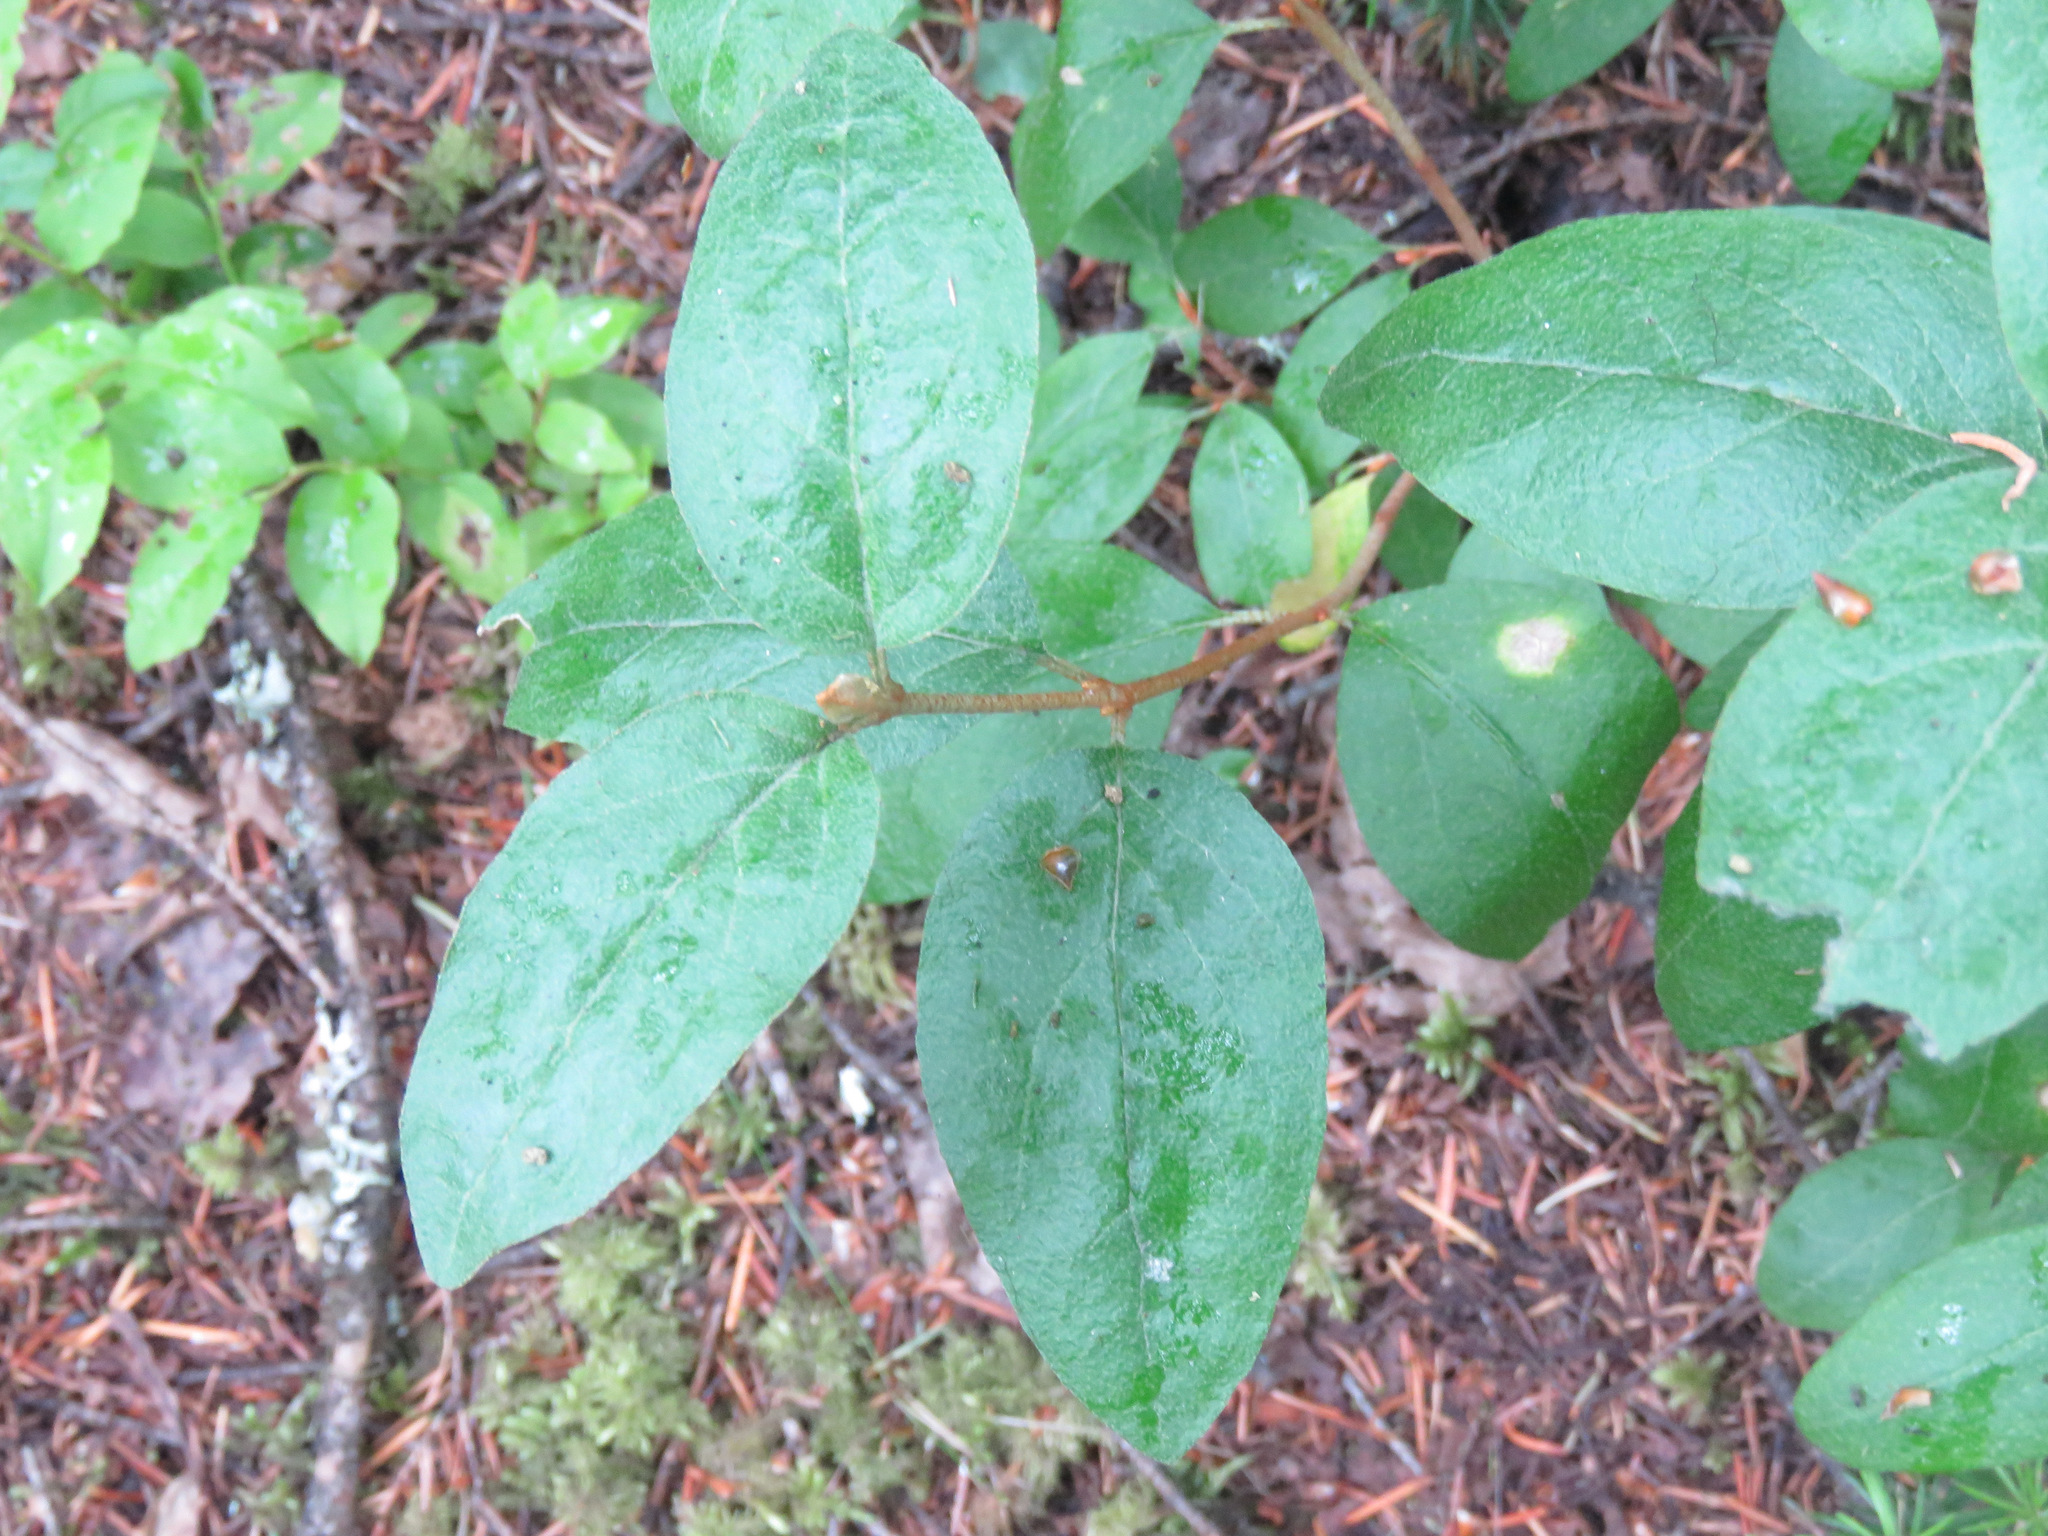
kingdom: Plantae
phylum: Tracheophyta
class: Magnoliopsida
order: Rosales
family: Elaeagnaceae
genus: Shepherdia
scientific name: Shepherdia canadensis
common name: Soapberry
